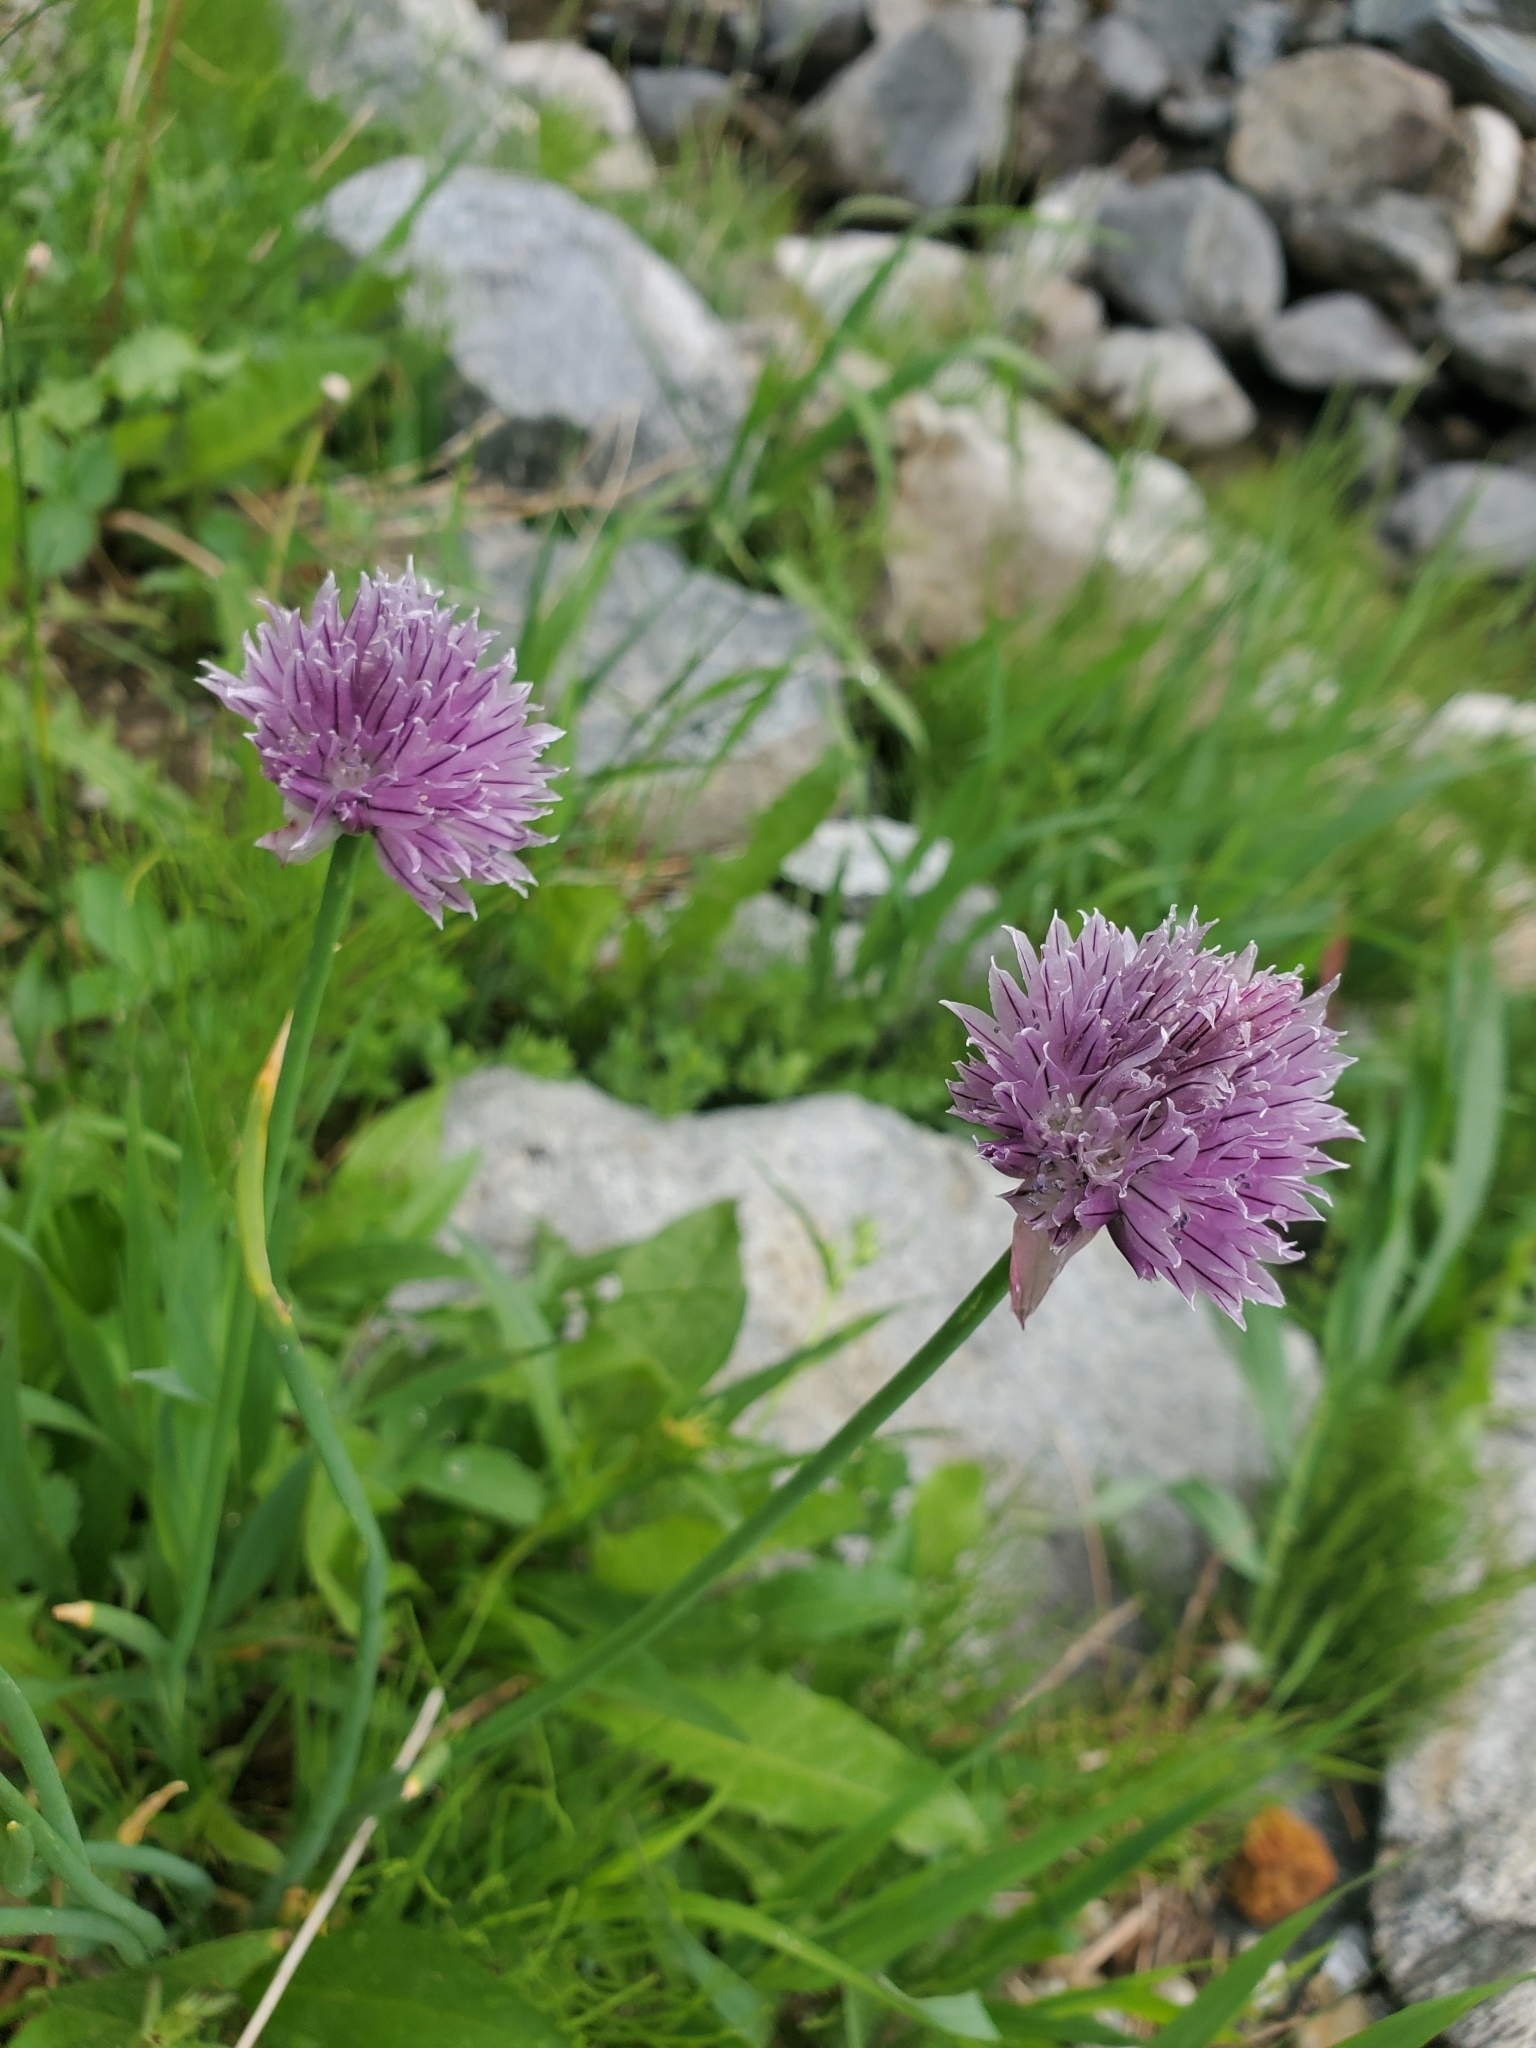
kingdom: Plantae
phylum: Tracheophyta
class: Liliopsida
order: Asparagales
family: Amaryllidaceae
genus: Allium
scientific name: Allium schoenoprasum
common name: Chives
